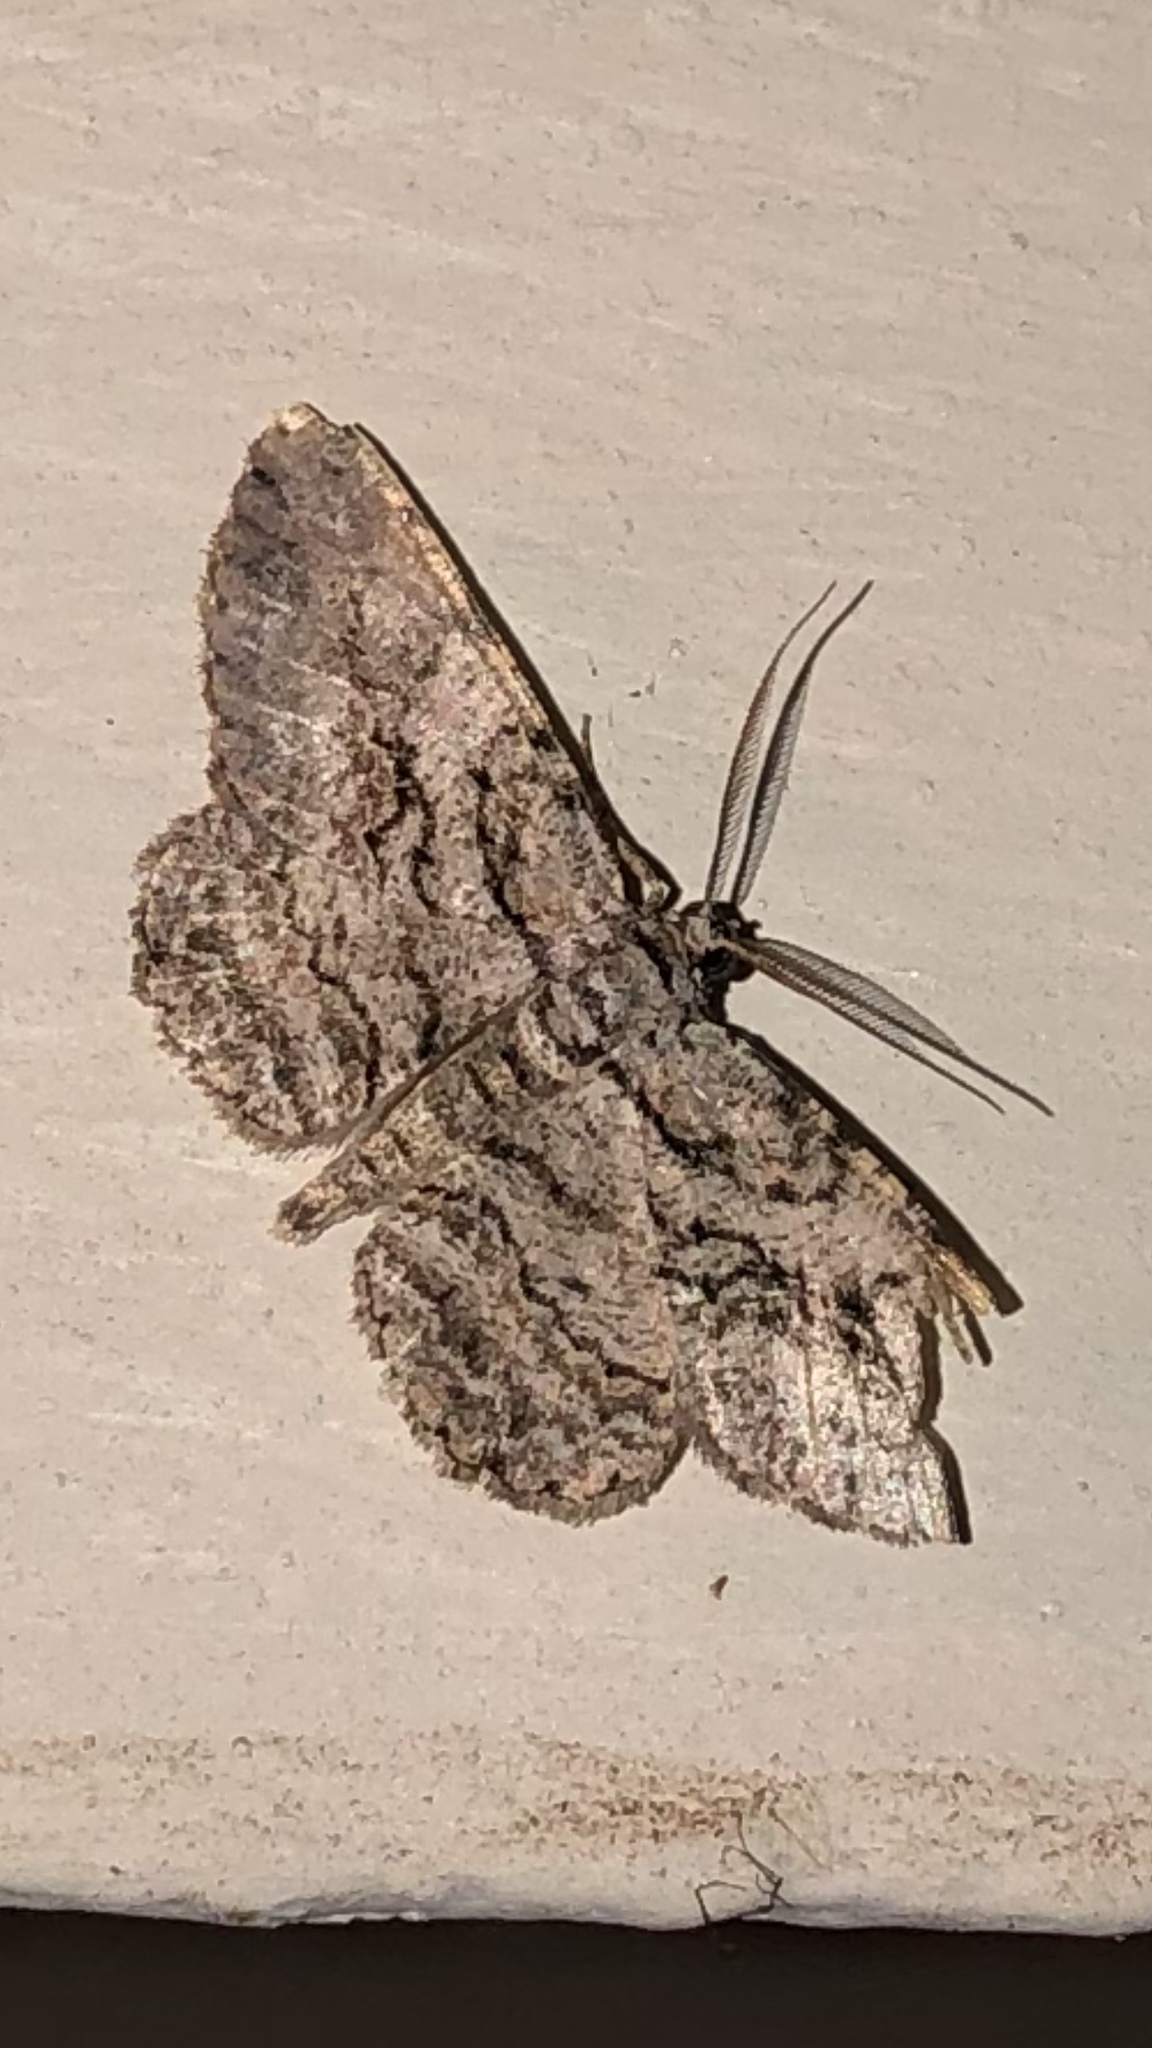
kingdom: Animalia
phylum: Arthropoda
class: Insecta
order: Lepidoptera
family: Geometridae
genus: Anavitrinella
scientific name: Anavitrinella pampinaria
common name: Common gray
